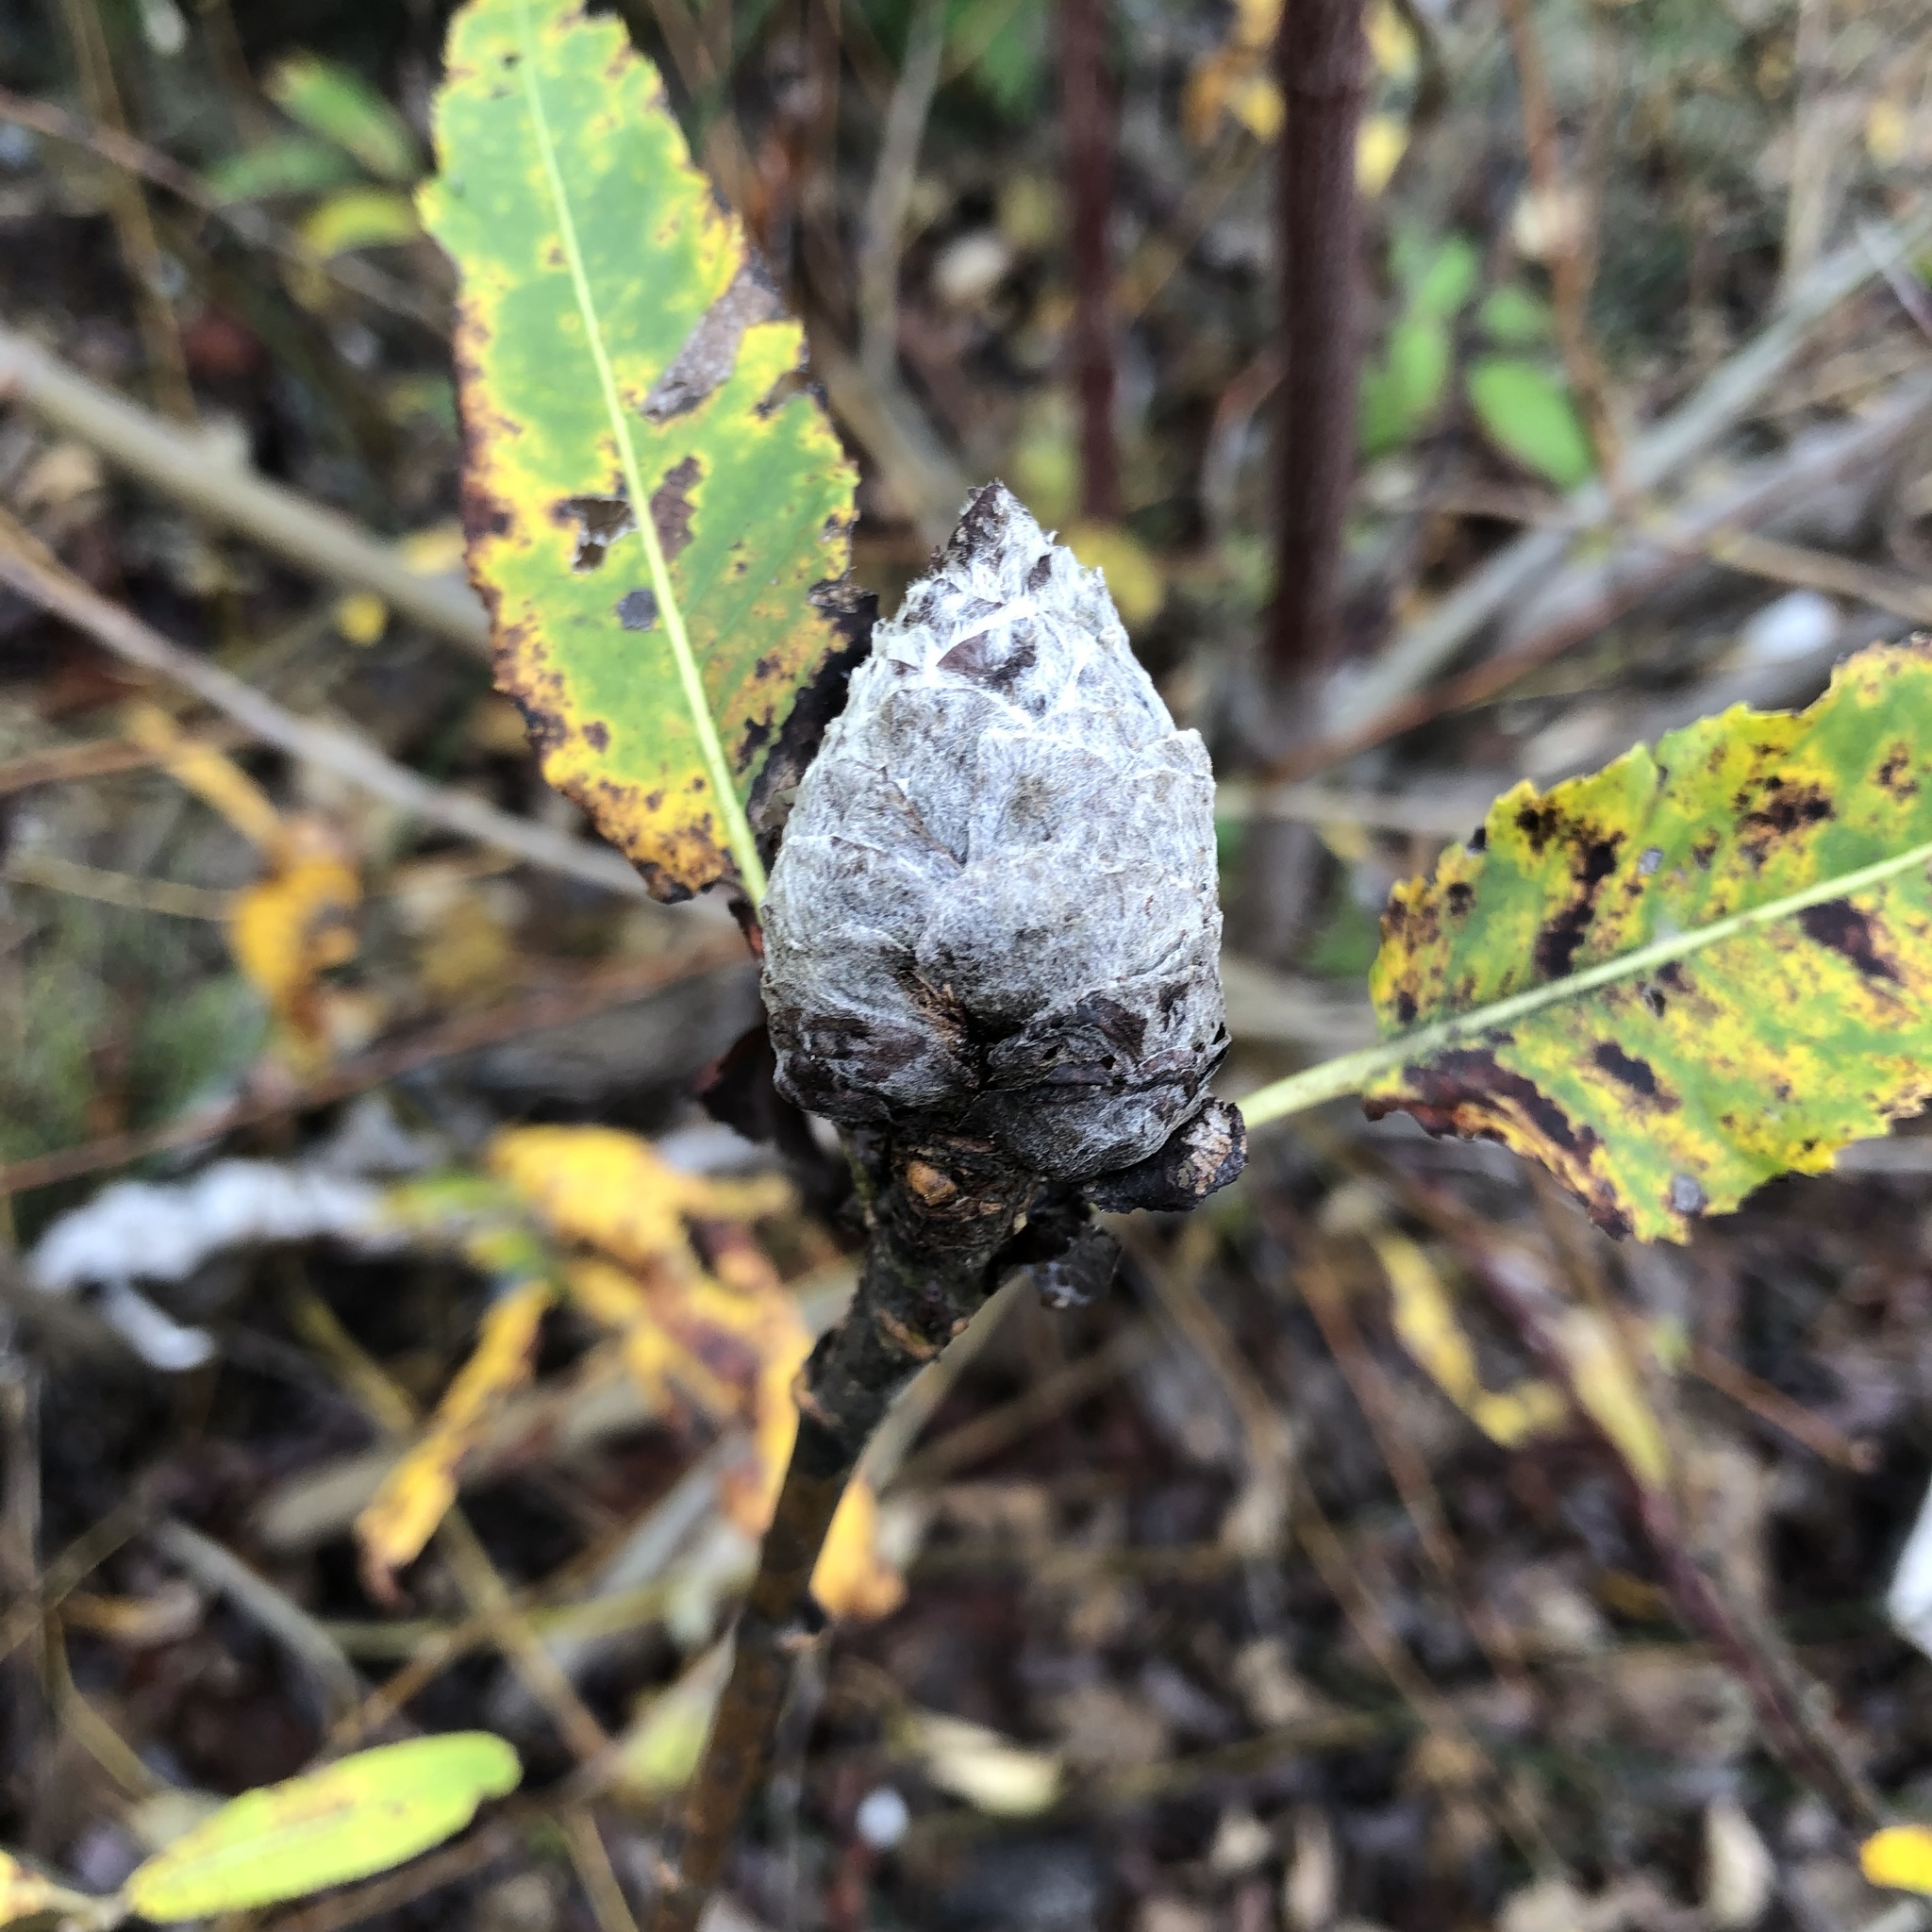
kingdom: Animalia
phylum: Arthropoda
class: Insecta
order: Diptera
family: Cecidomyiidae
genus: Rabdophaga
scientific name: Rabdophaga strobiloides
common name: Willow pinecone gall midge
